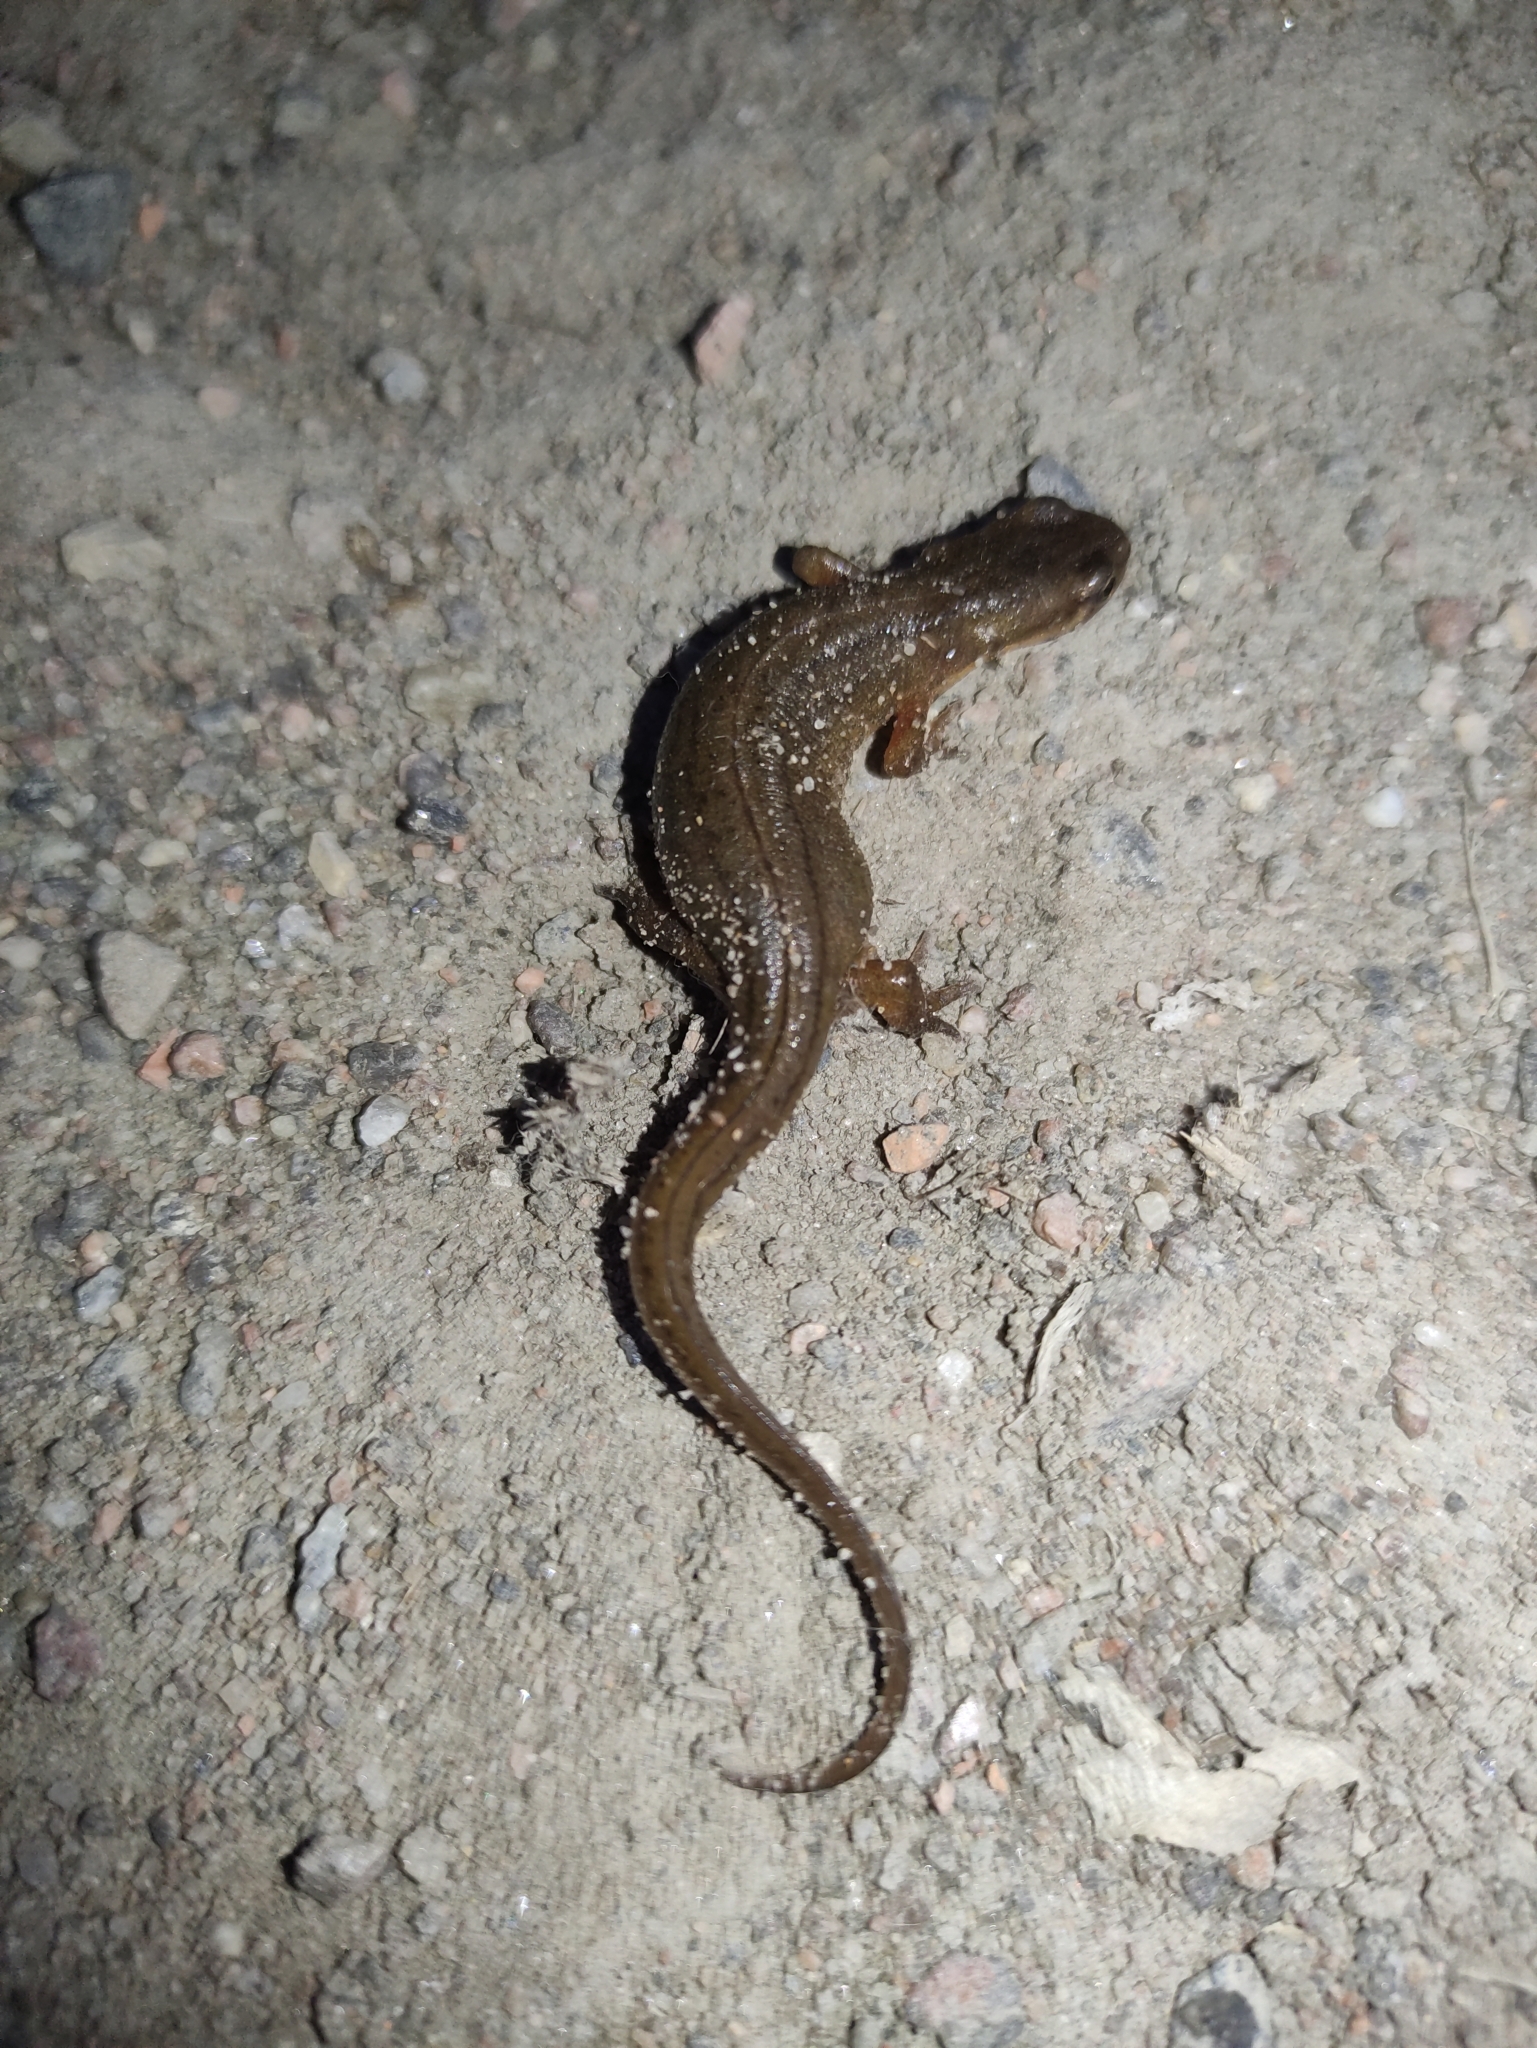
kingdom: Animalia
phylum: Chordata
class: Amphibia
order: Caudata
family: Salamandridae
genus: Lissotriton
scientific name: Lissotriton vulgaris
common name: Smooth newt
